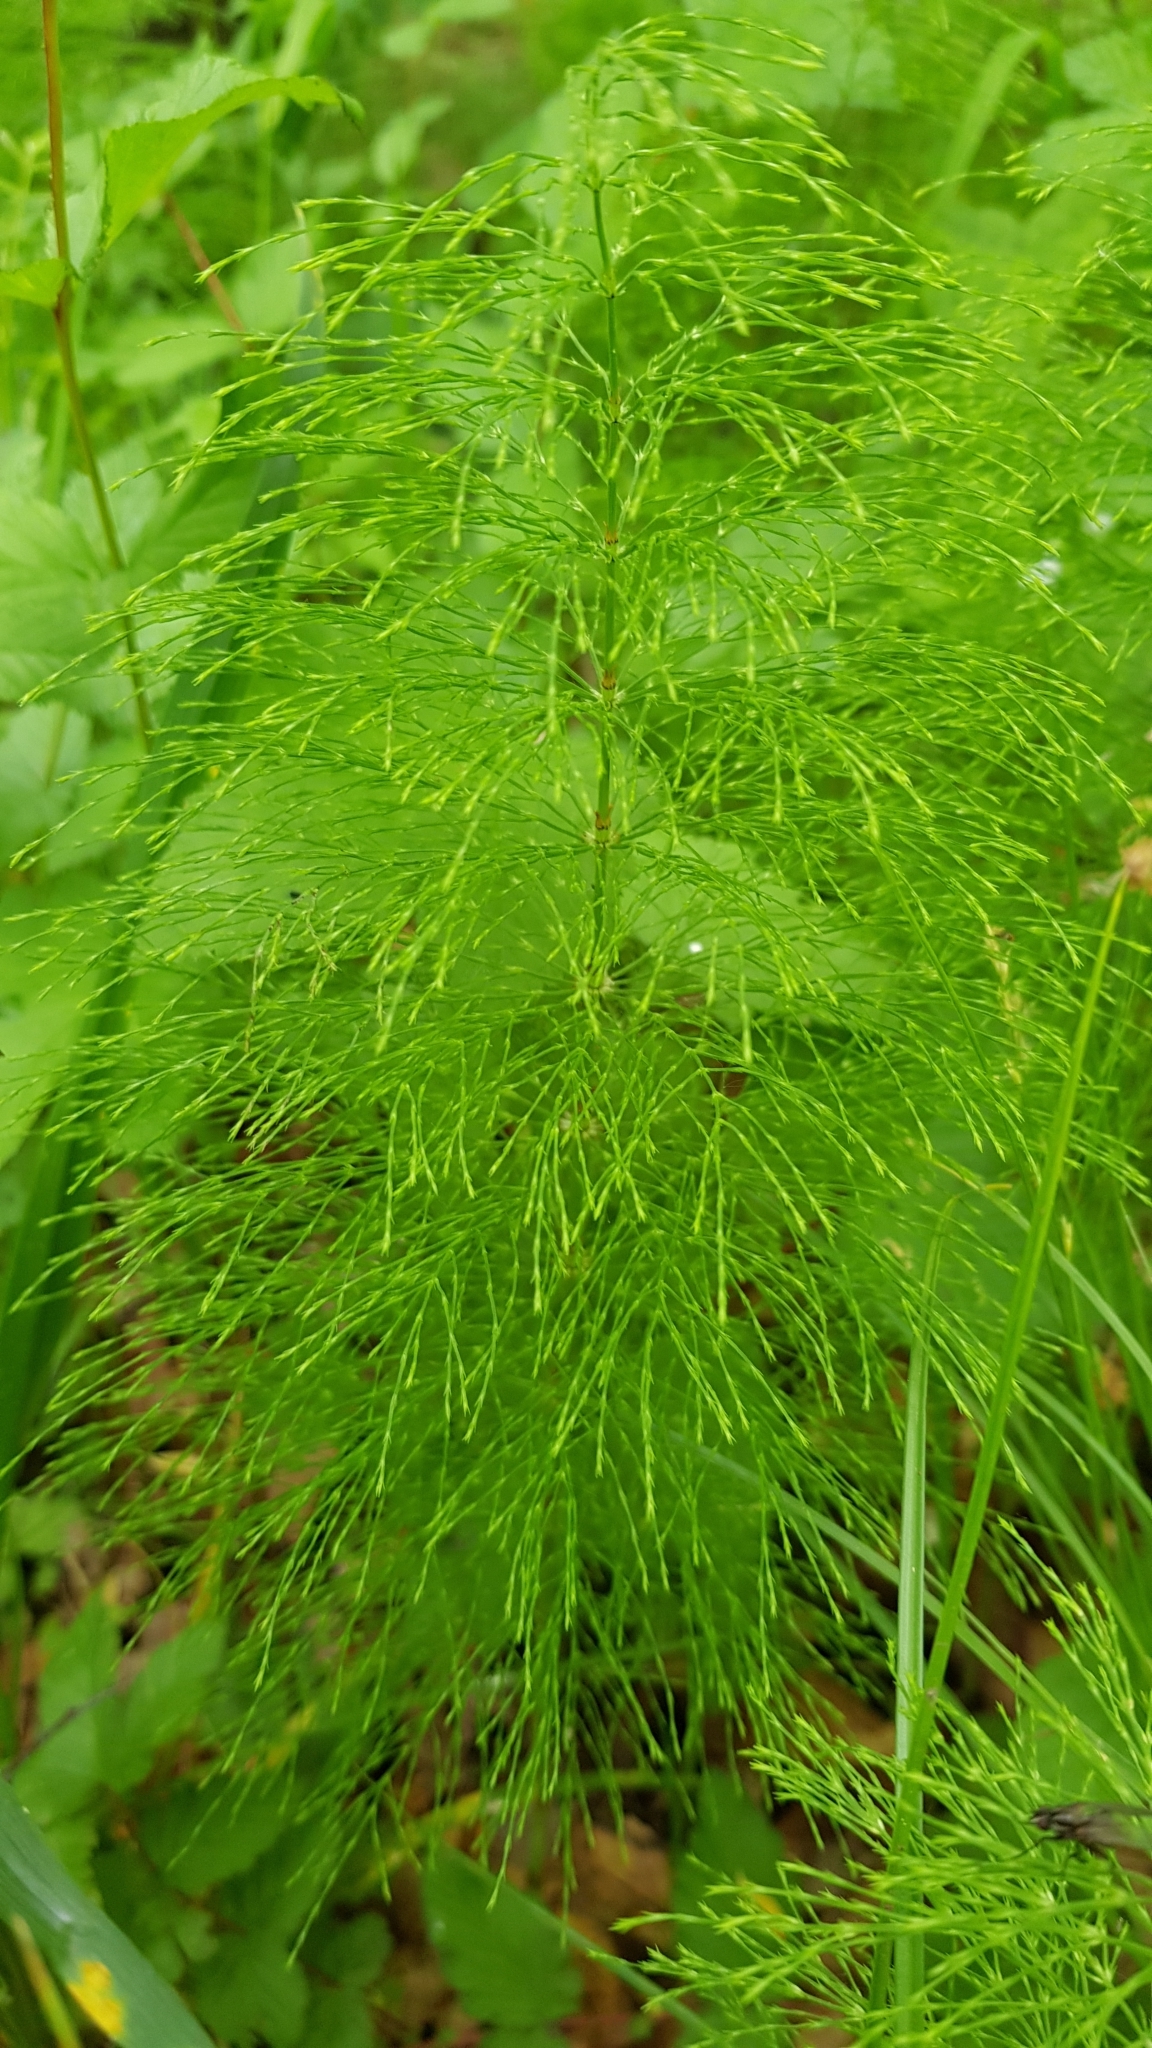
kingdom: Plantae
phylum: Tracheophyta
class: Polypodiopsida
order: Equisetales
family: Equisetaceae
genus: Equisetum
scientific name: Equisetum sylvaticum
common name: Wood horsetail
